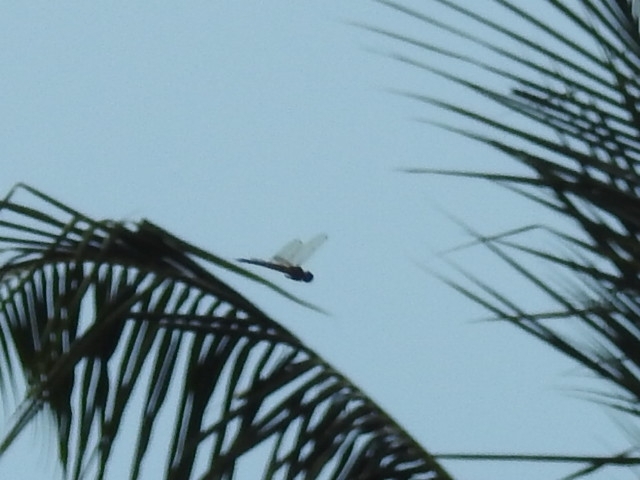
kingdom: Animalia
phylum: Arthropoda
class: Insecta
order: Odonata
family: Libellulidae
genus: Pantala
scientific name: Pantala flavescens
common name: Wandering glider
